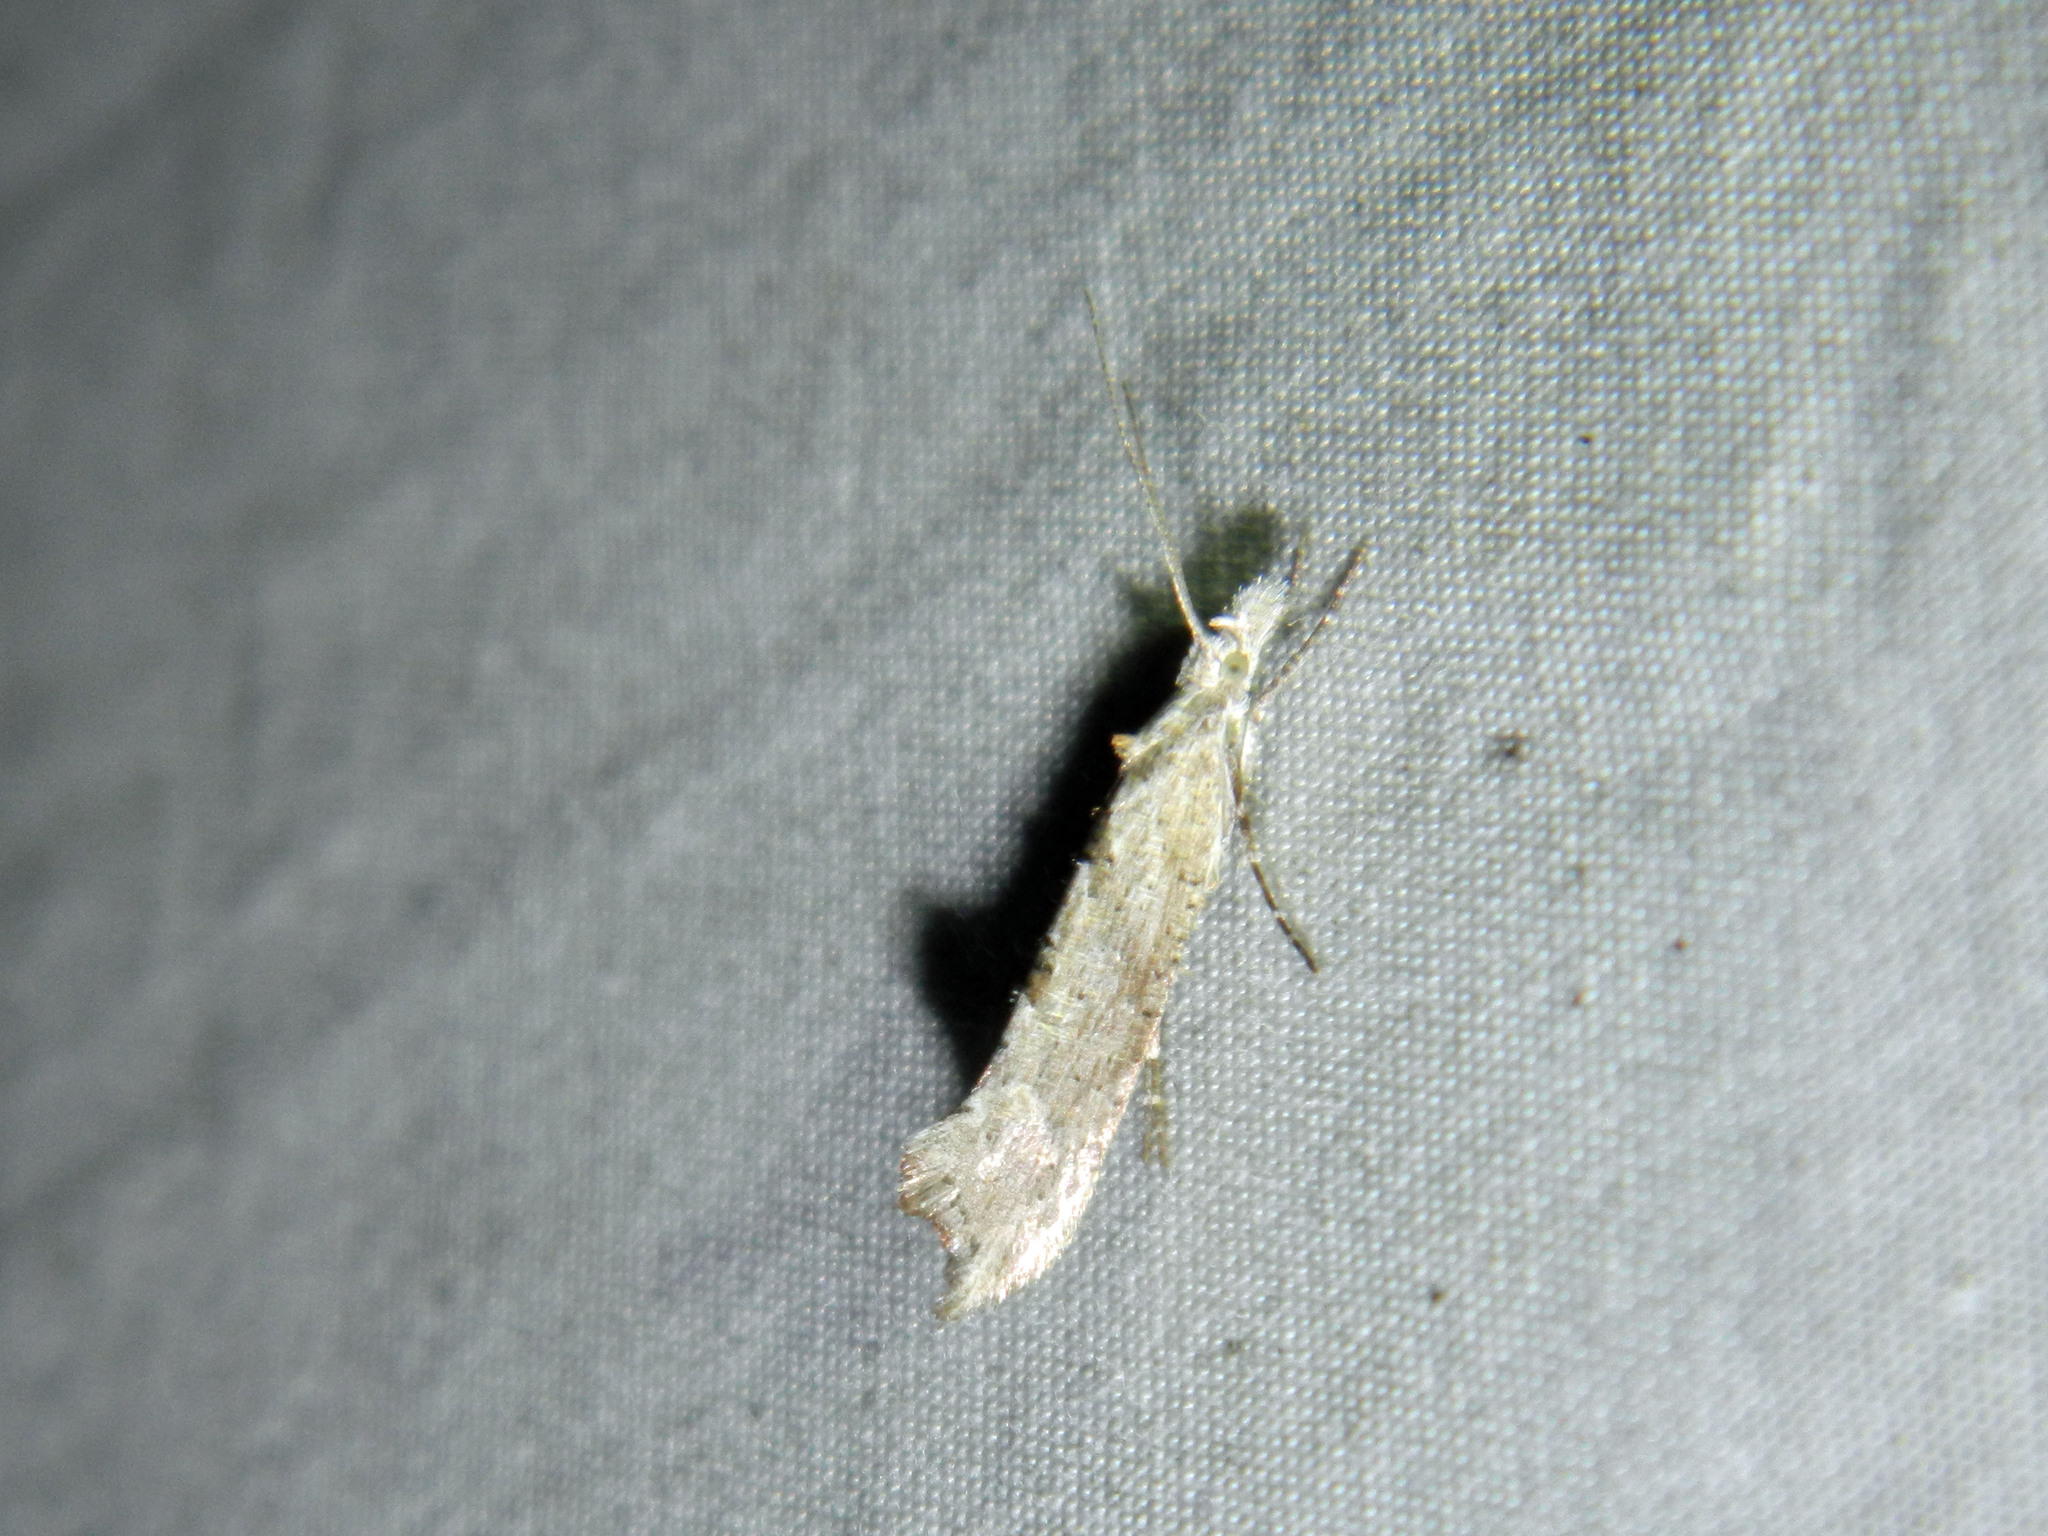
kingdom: Animalia
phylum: Arthropoda
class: Insecta
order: Lepidoptera
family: Ypsolophidae
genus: Ypsolopha
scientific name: Ypsolopha falciferella
